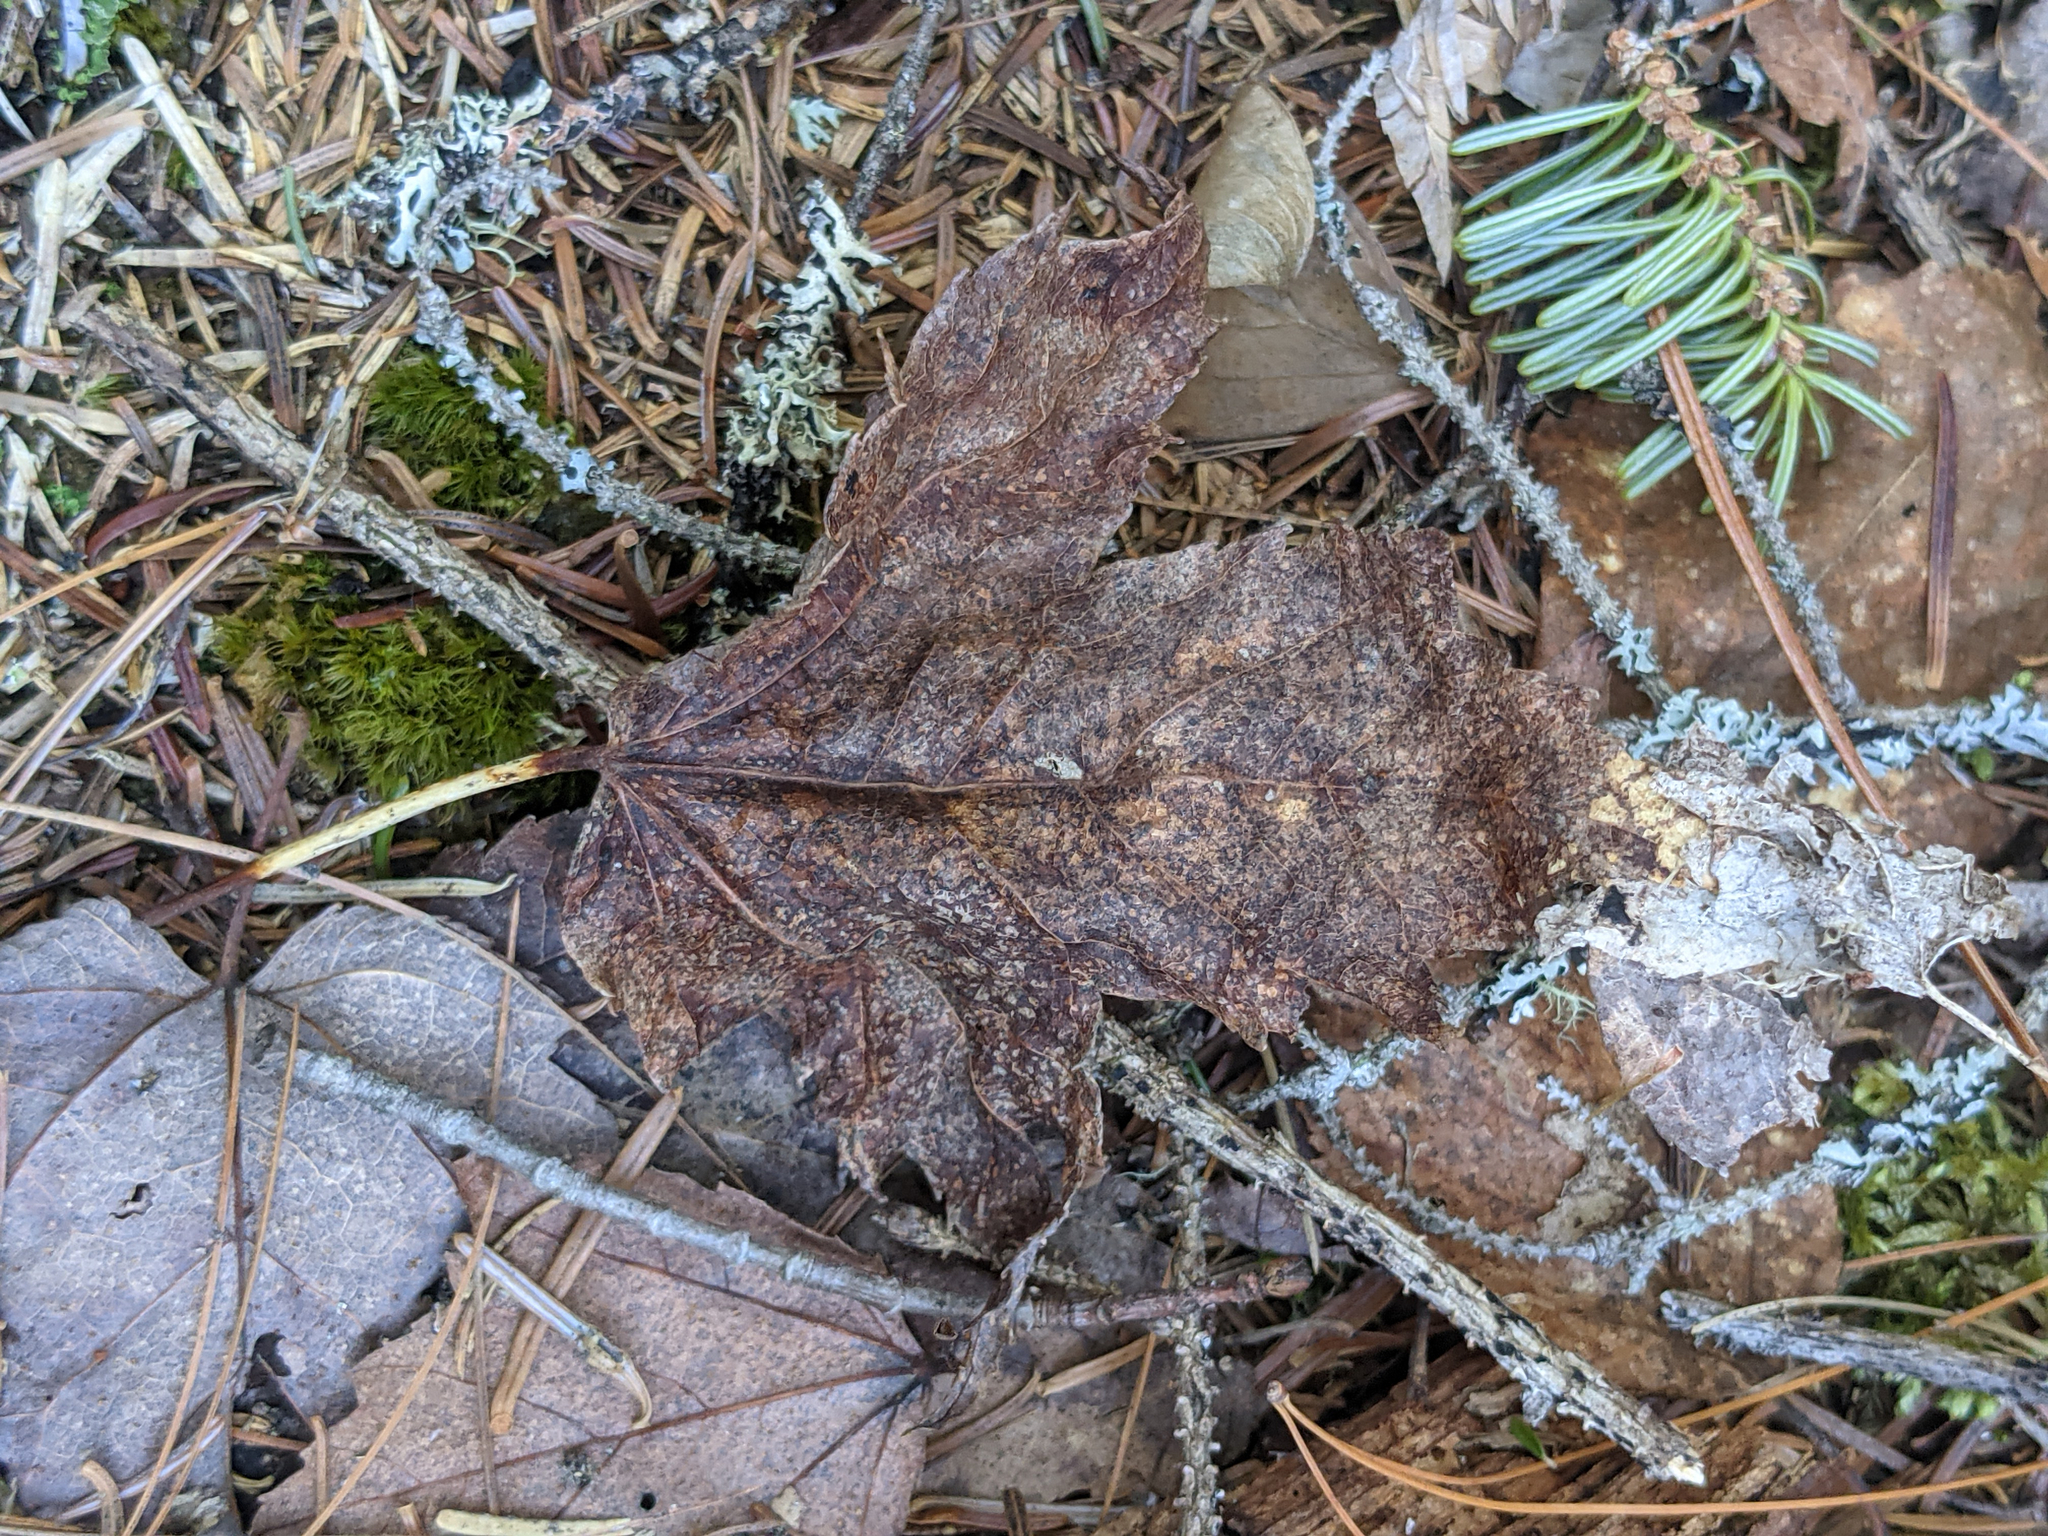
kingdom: Plantae
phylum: Tracheophyta
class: Magnoliopsida
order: Sapindales
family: Sapindaceae
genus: Acer
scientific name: Acer rubrum
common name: Red maple
